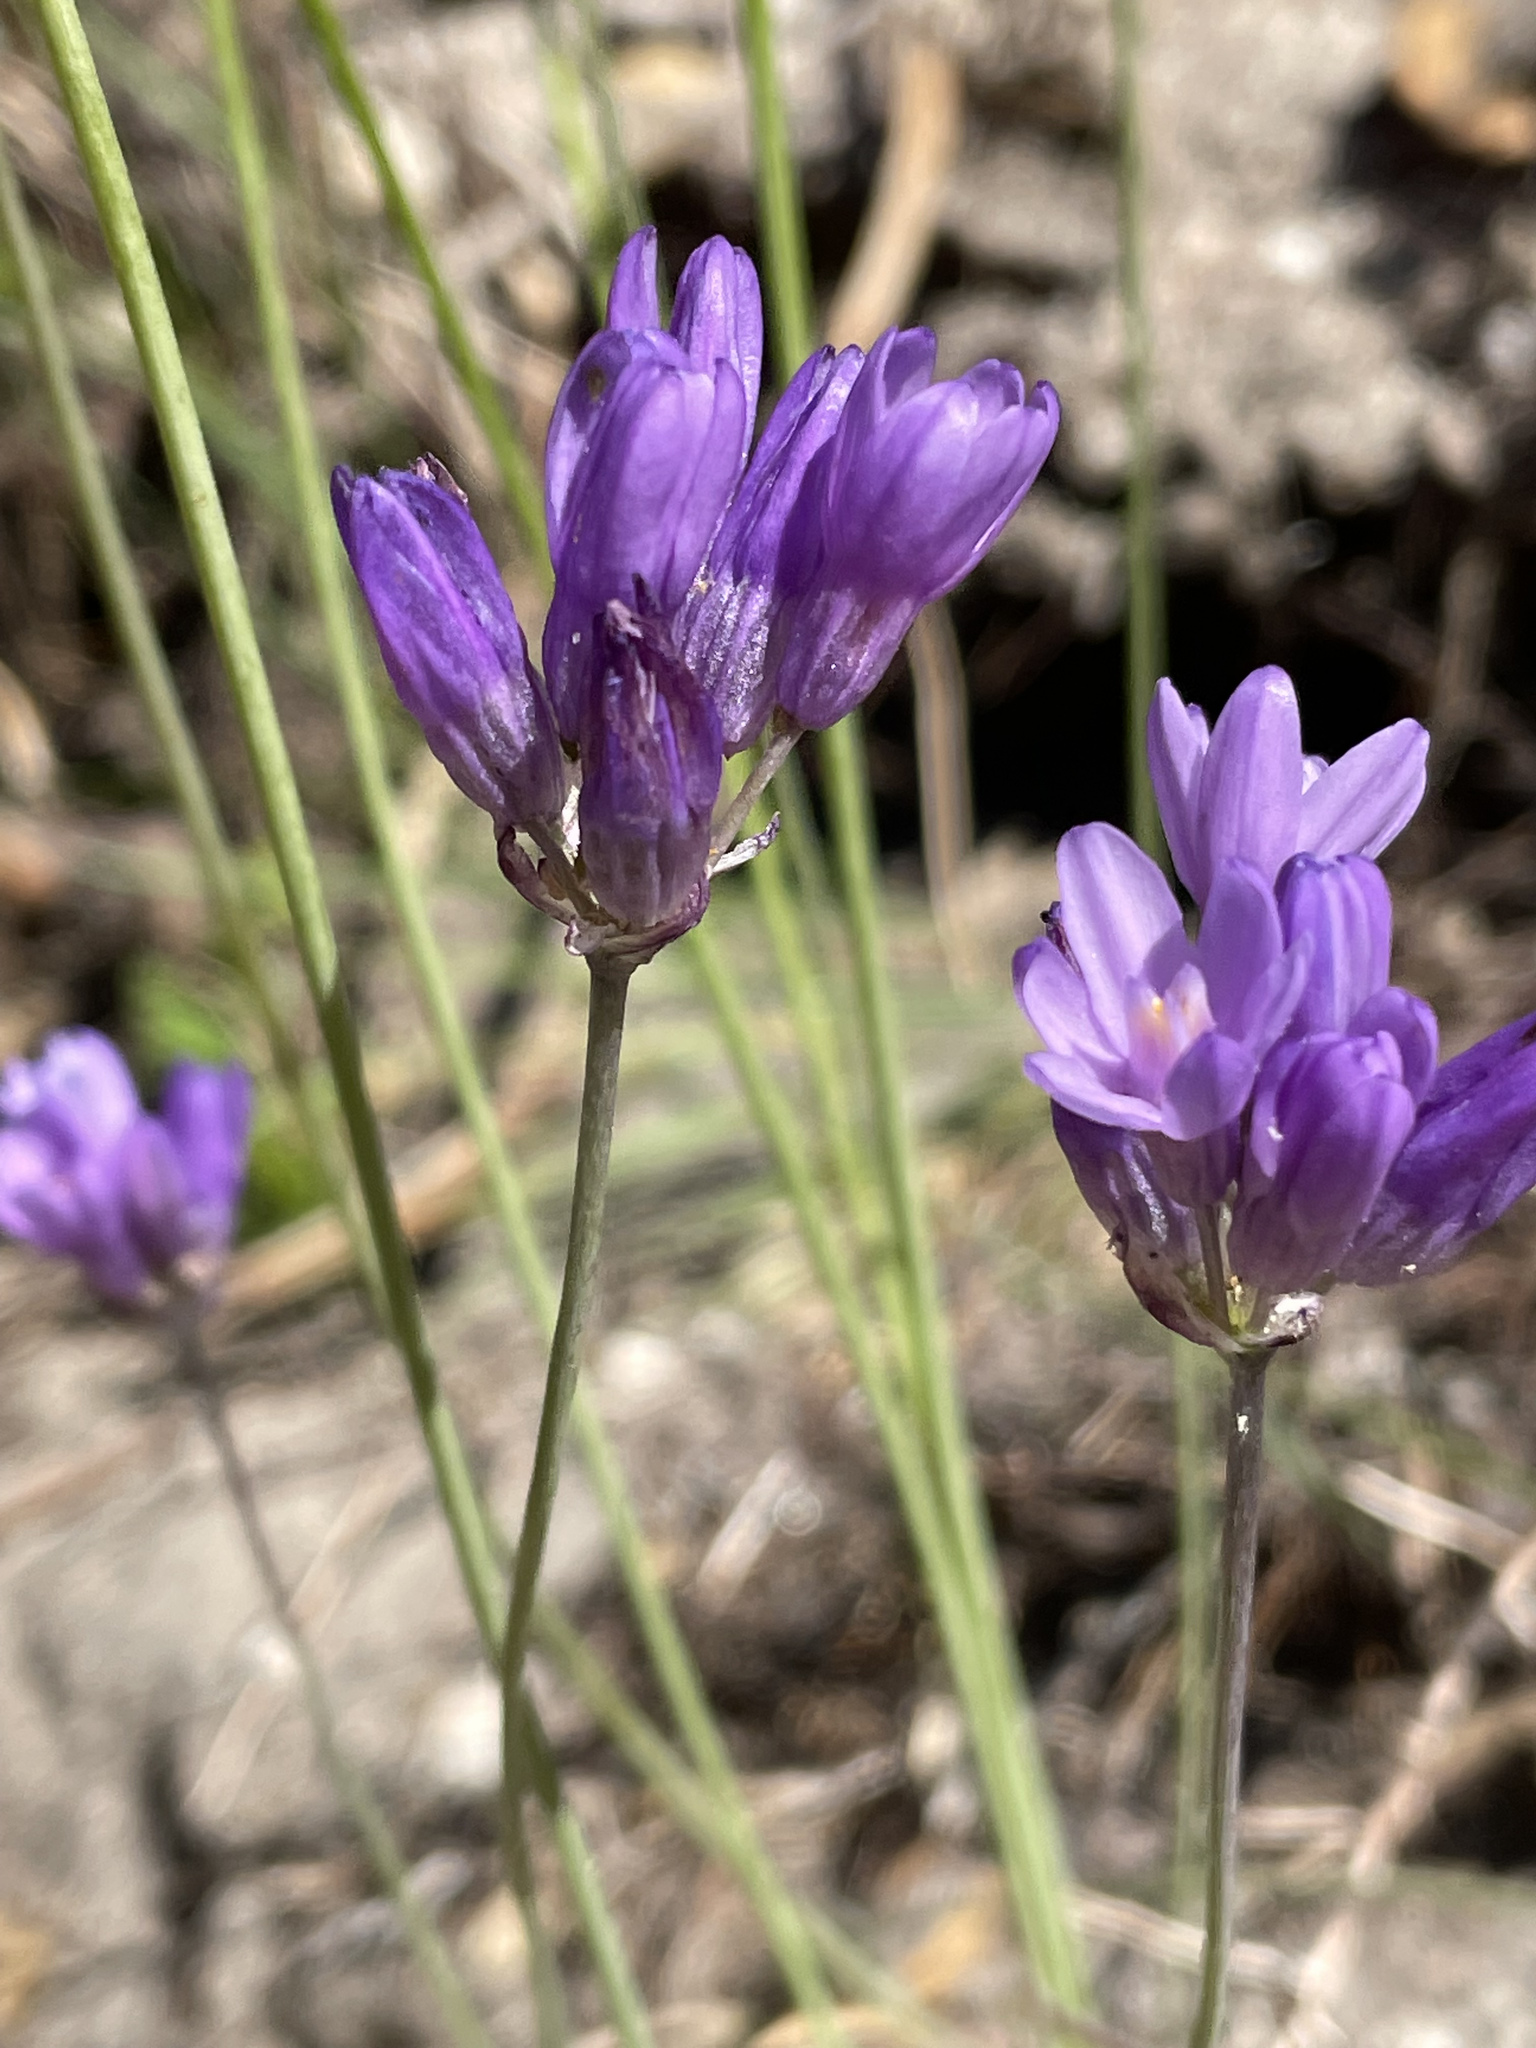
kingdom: Plantae
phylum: Tracheophyta
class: Liliopsida
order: Asparagales
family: Asparagaceae
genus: Dipterostemon
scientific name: Dipterostemon capitatus
